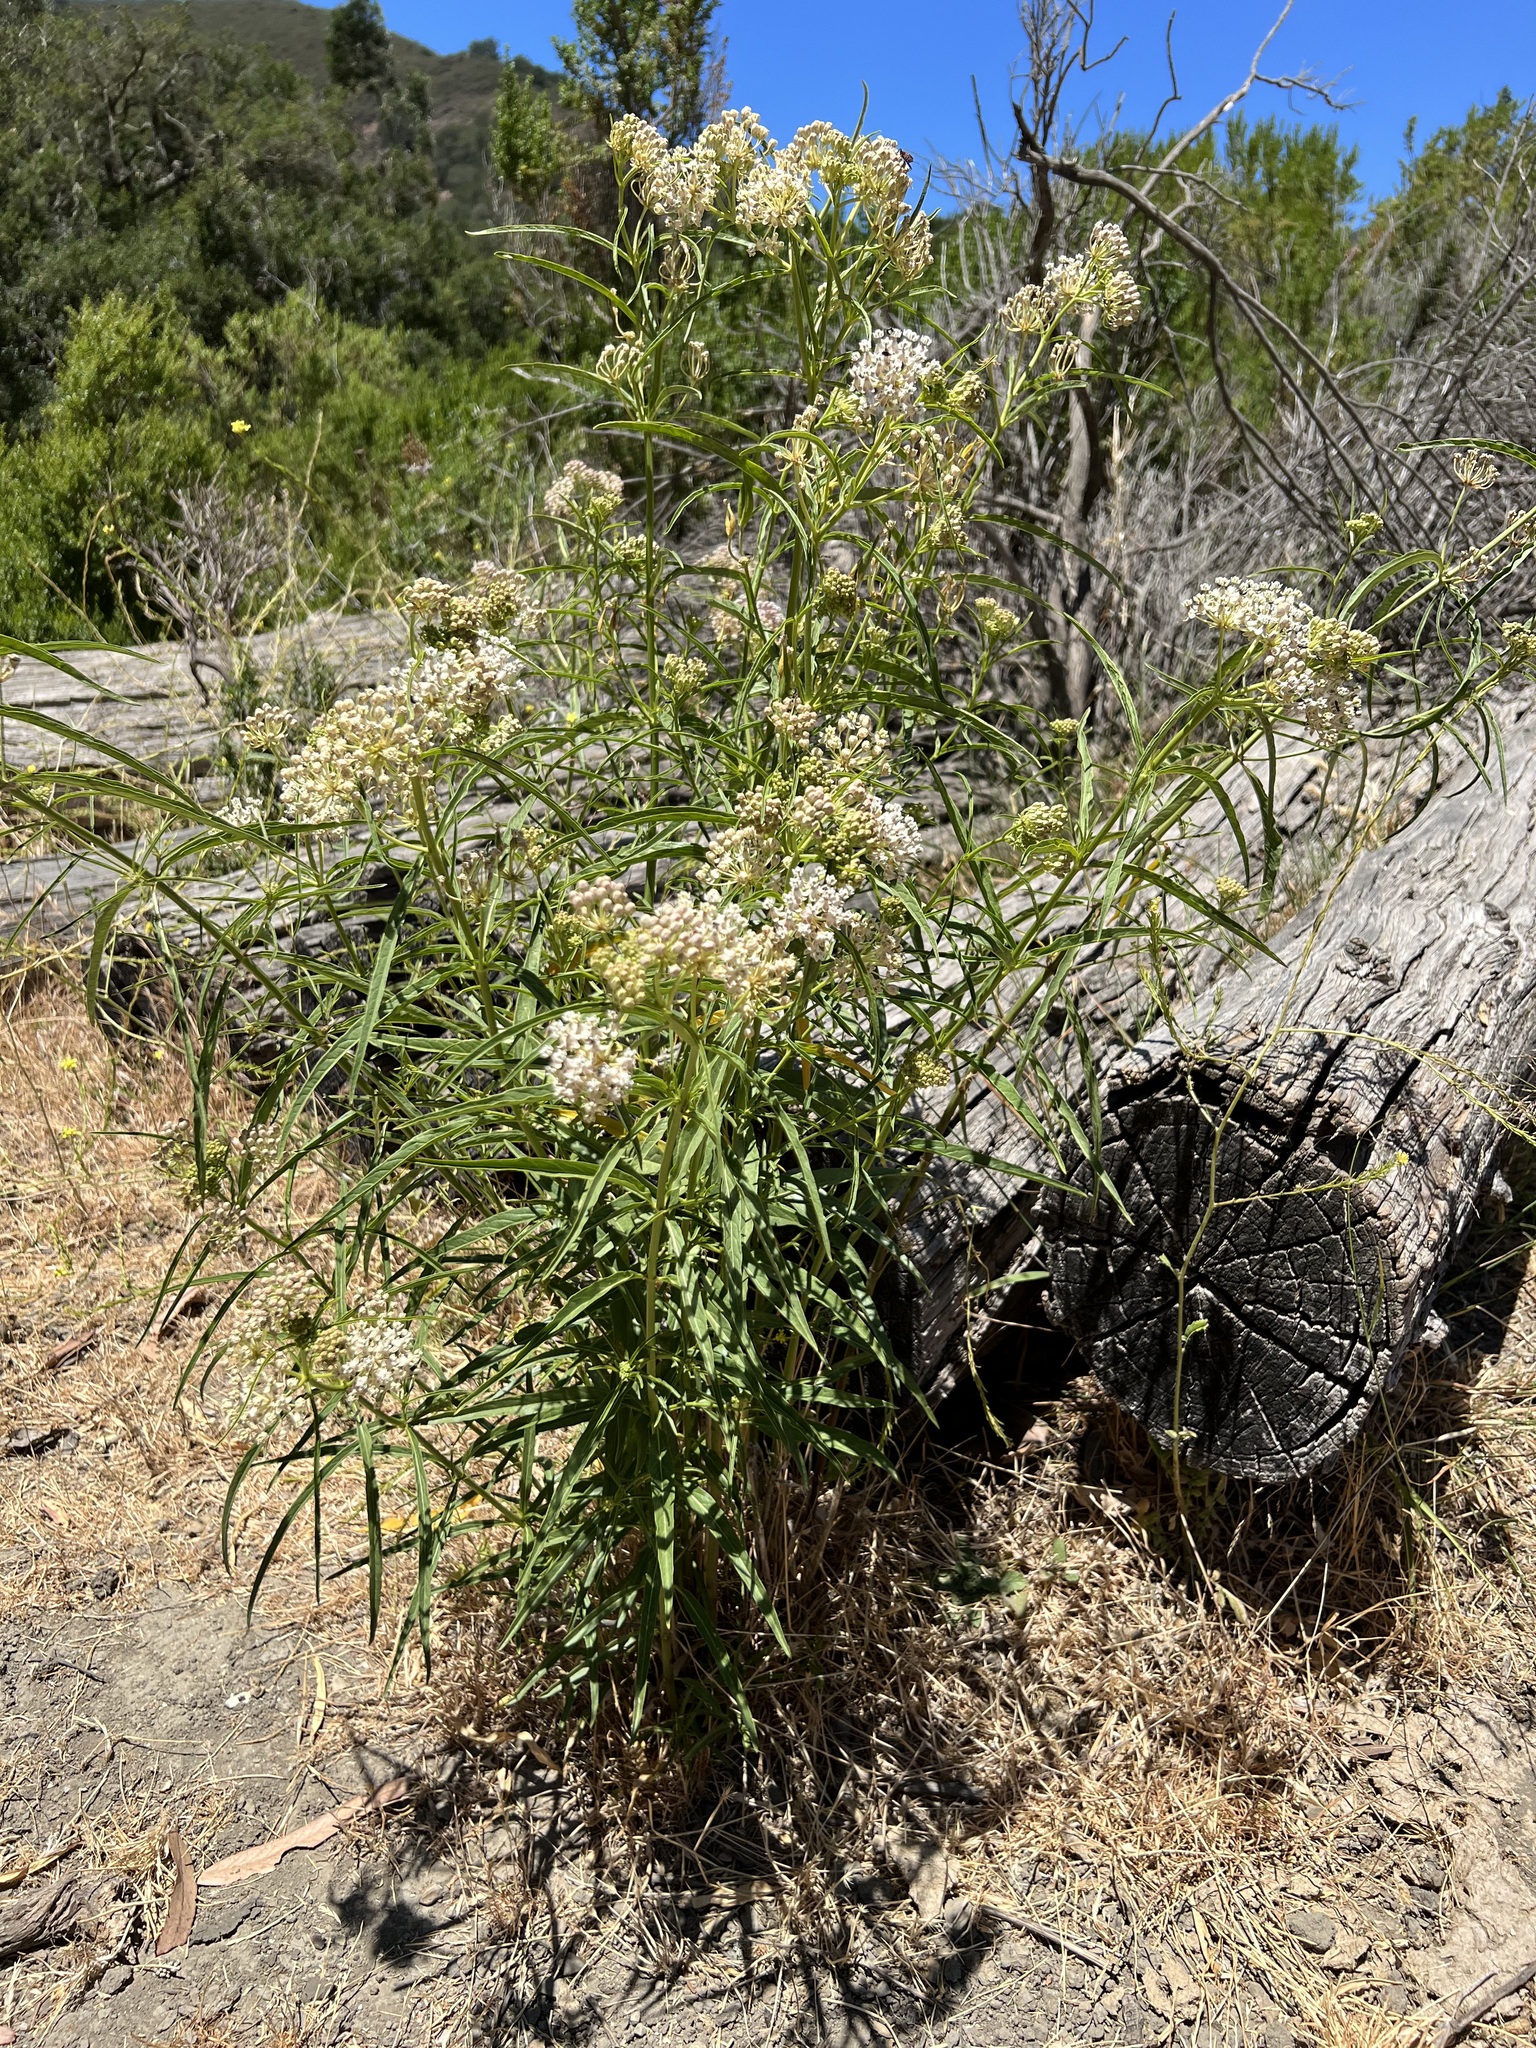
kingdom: Plantae
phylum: Tracheophyta
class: Magnoliopsida
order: Gentianales
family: Apocynaceae
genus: Asclepias
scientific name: Asclepias fascicularis
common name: Mexican milkweed
